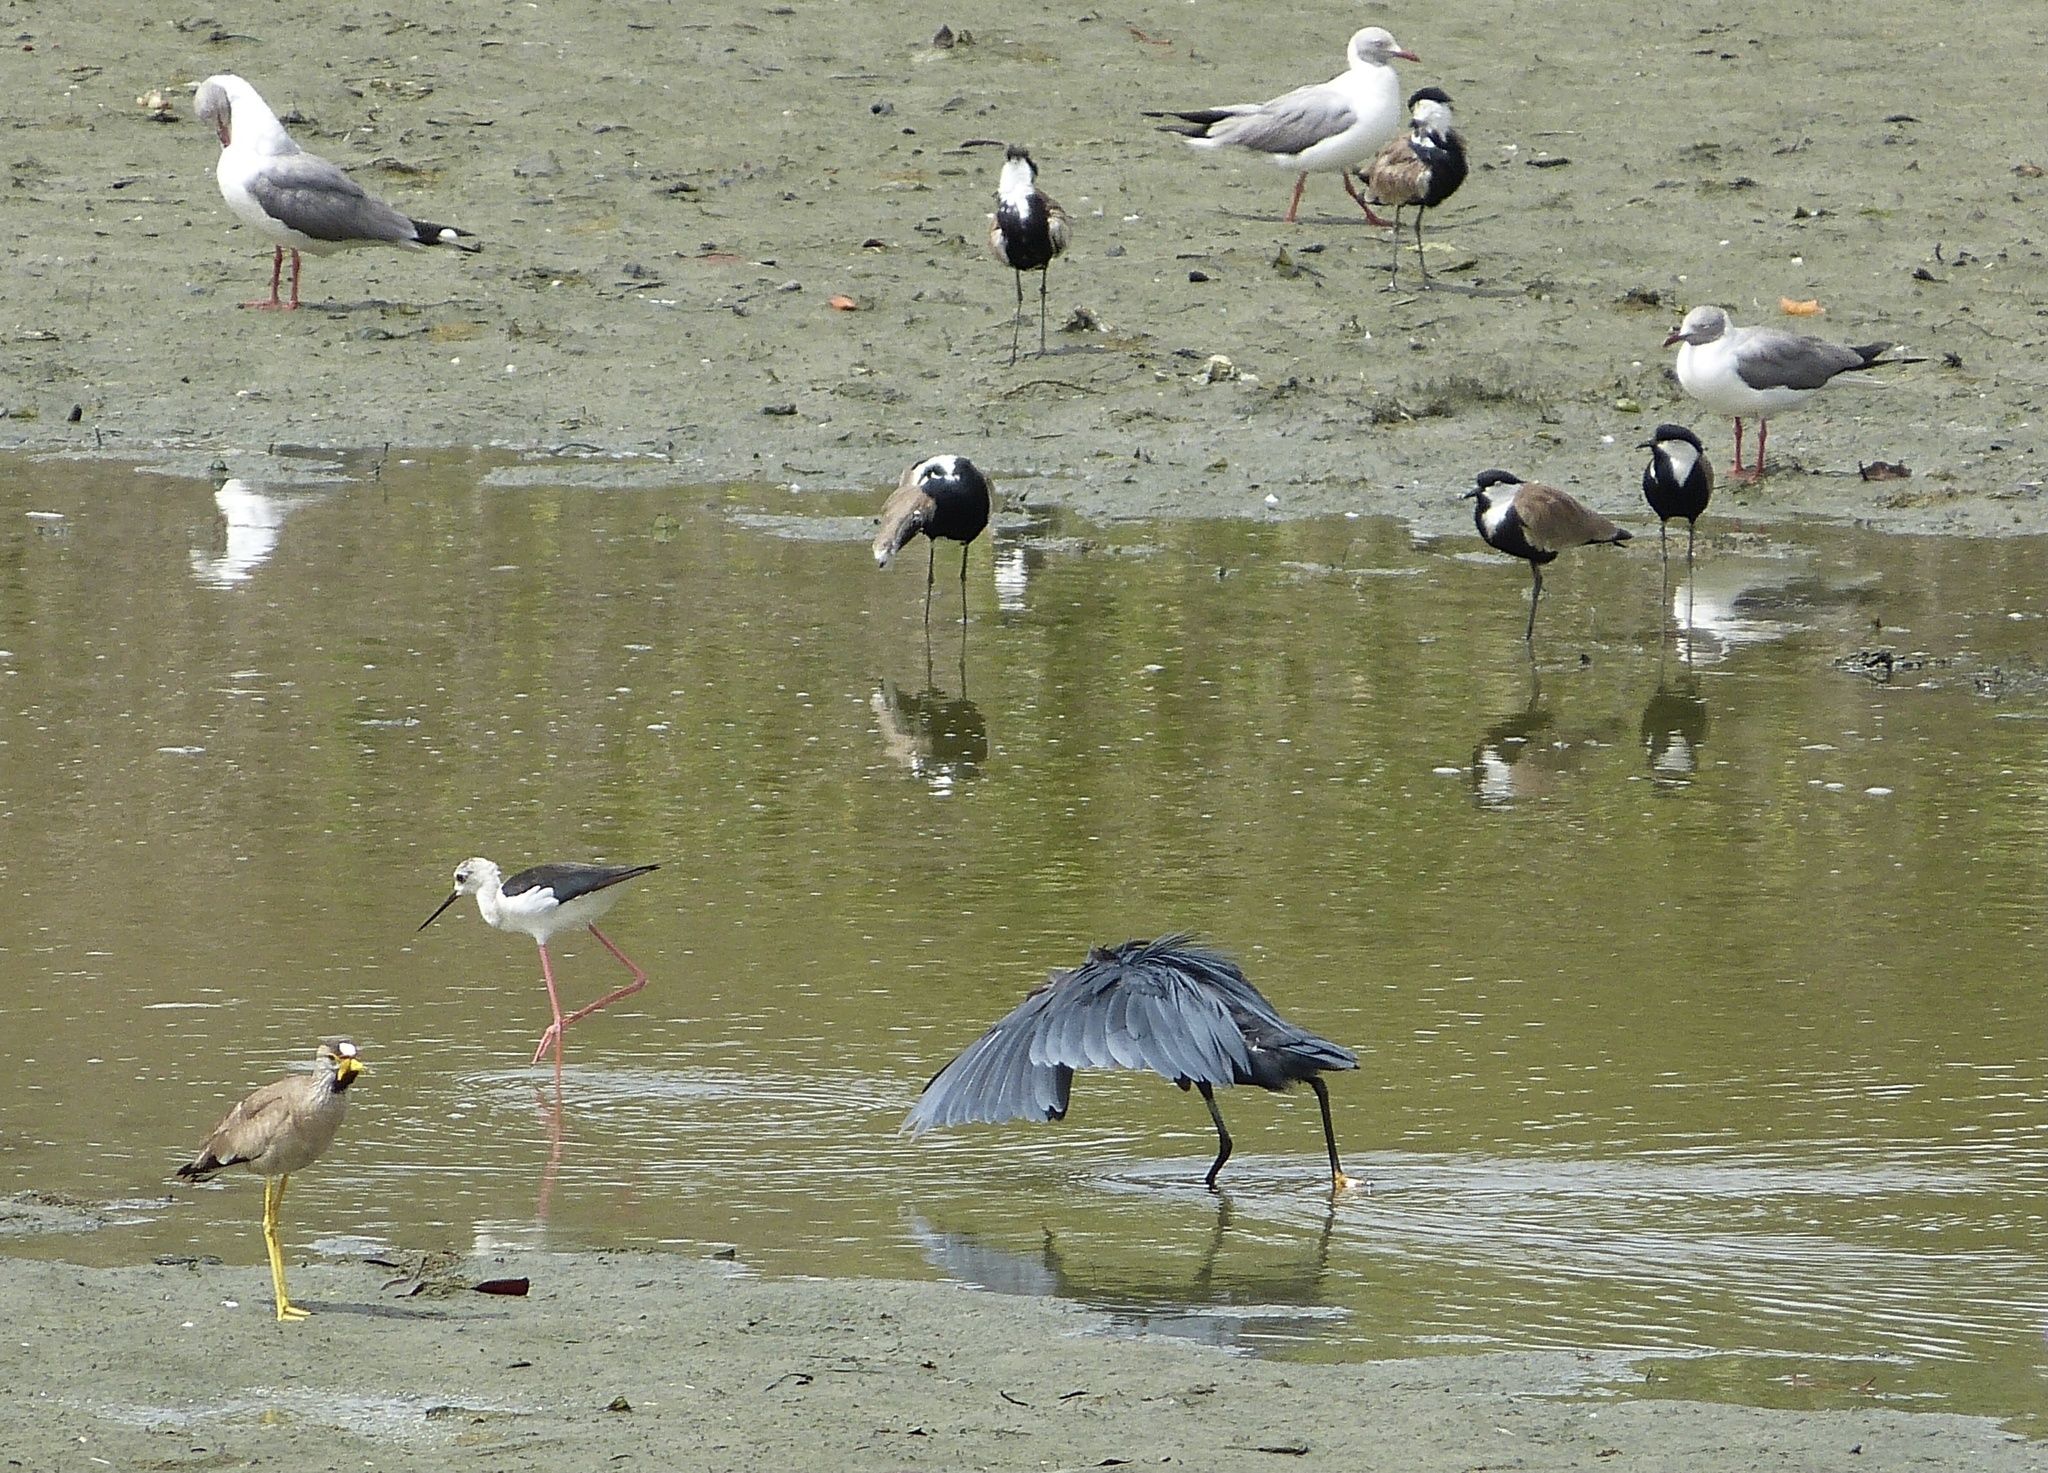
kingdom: Animalia
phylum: Chordata
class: Aves
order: Charadriiformes
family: Charadriidae
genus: Vanellus
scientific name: Vanellus senegallus
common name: African wattled lapwing
